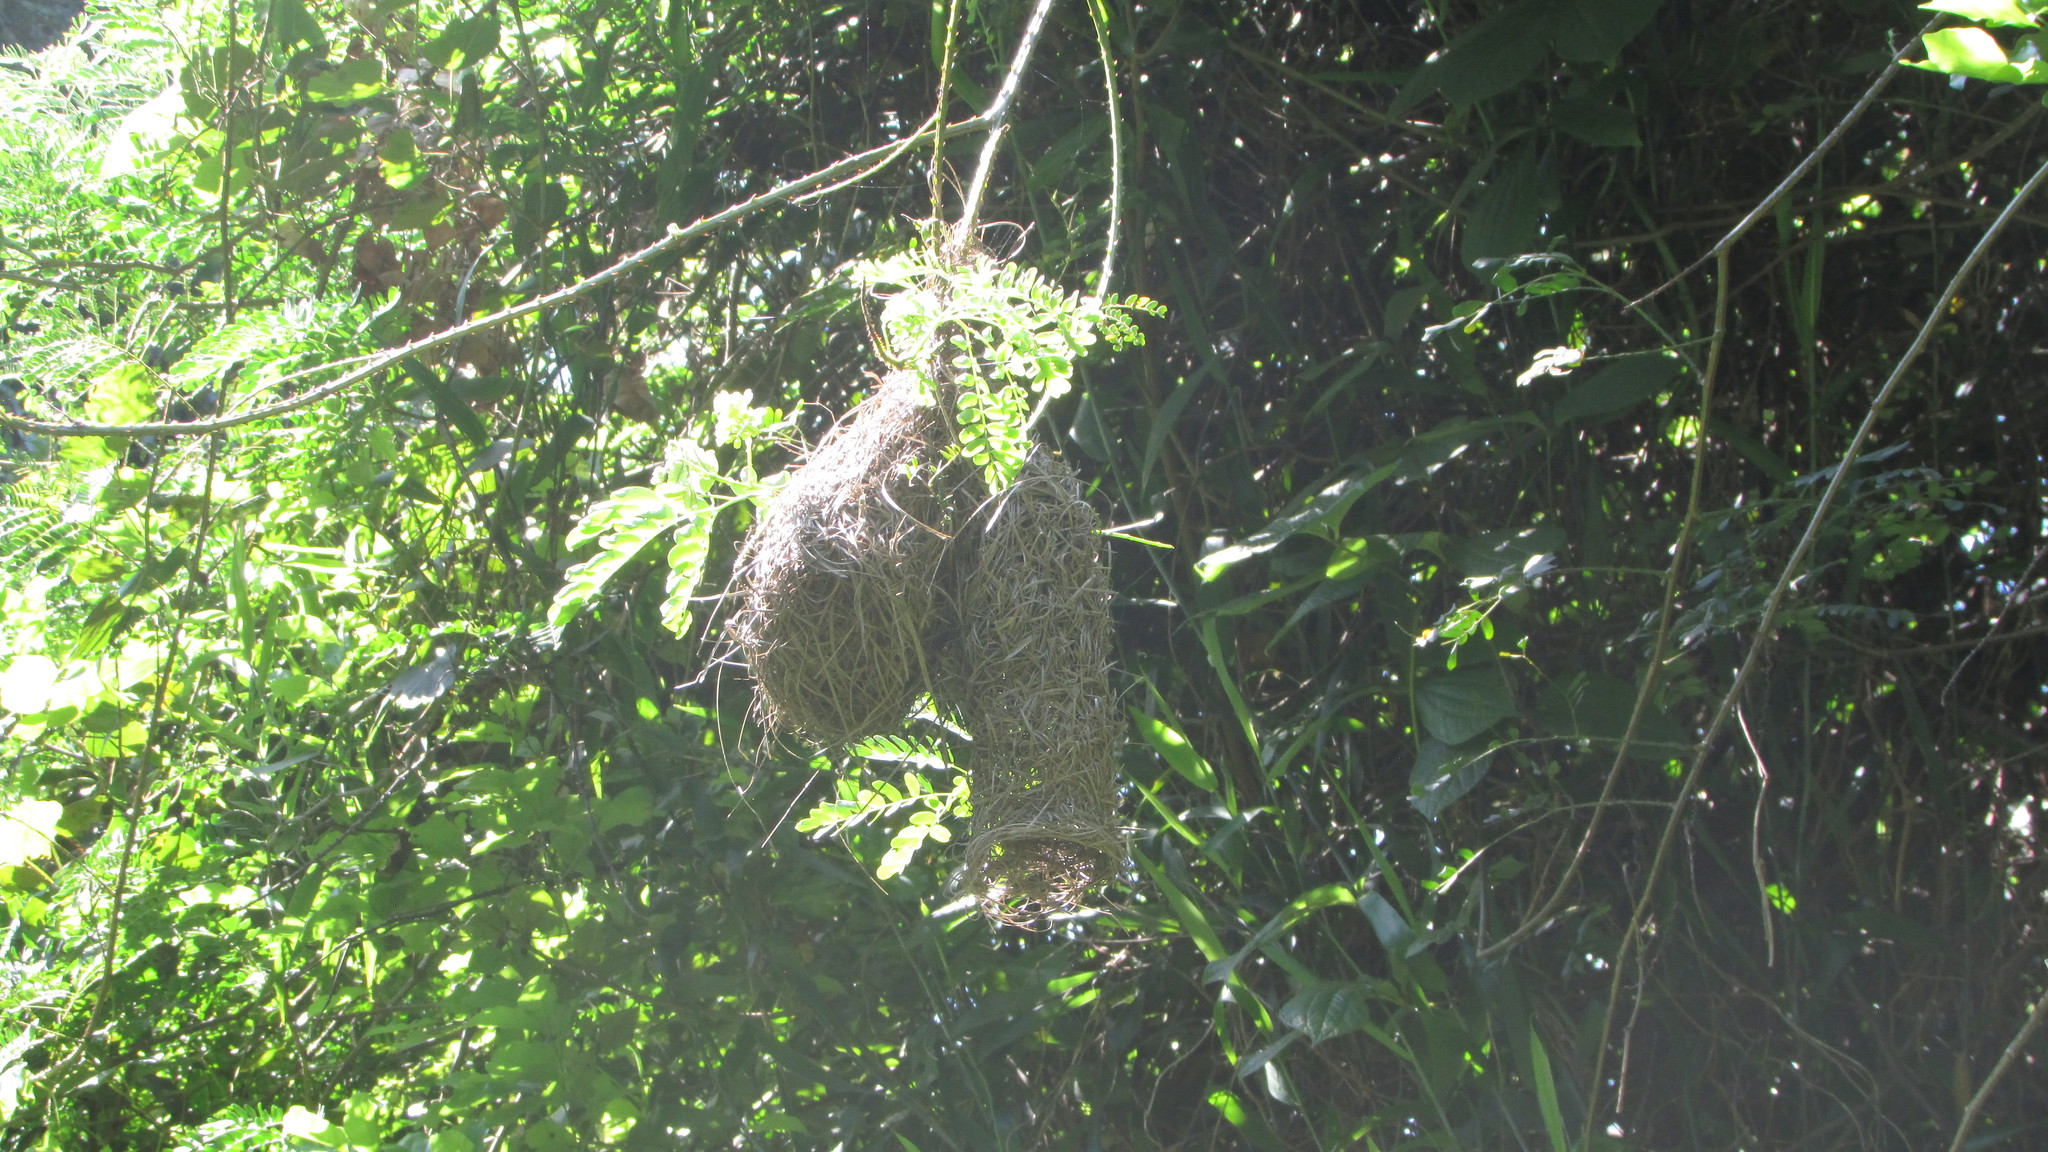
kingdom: Animalia
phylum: Chordata
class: Aves
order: Passeriformes
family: Ploceidae
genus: Ploceus
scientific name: Ploceus ocularis
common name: Spectacled weaver
